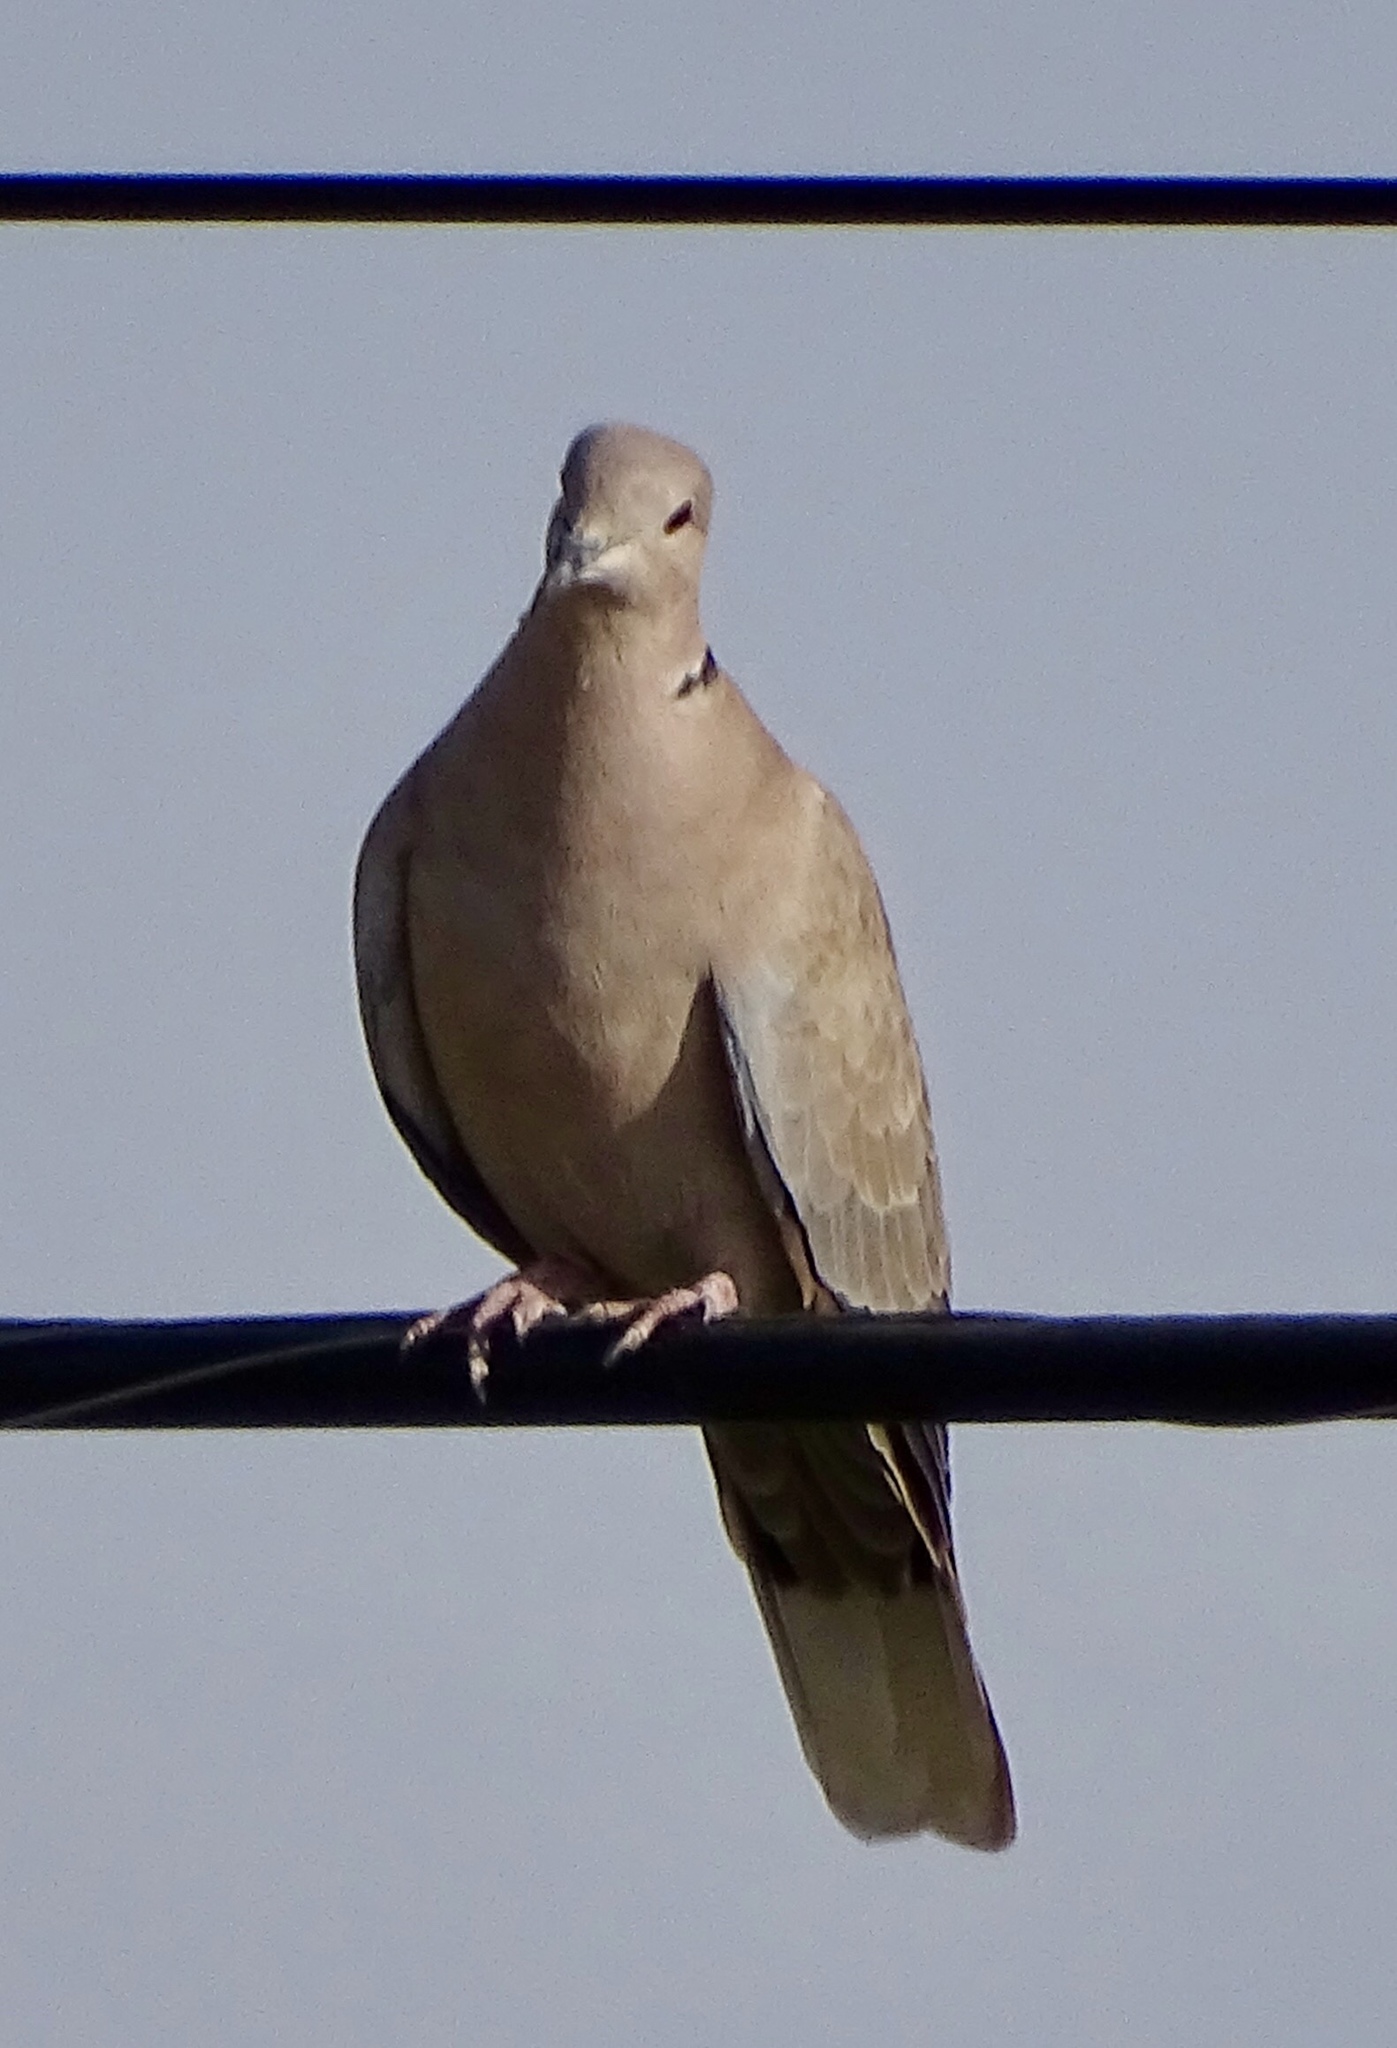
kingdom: Animalia
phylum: Chordata
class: Aves
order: Columbiformes
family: Columbidae
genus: Streptopelia
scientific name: Streptopelia decaocto
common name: Eurasian collared dove
